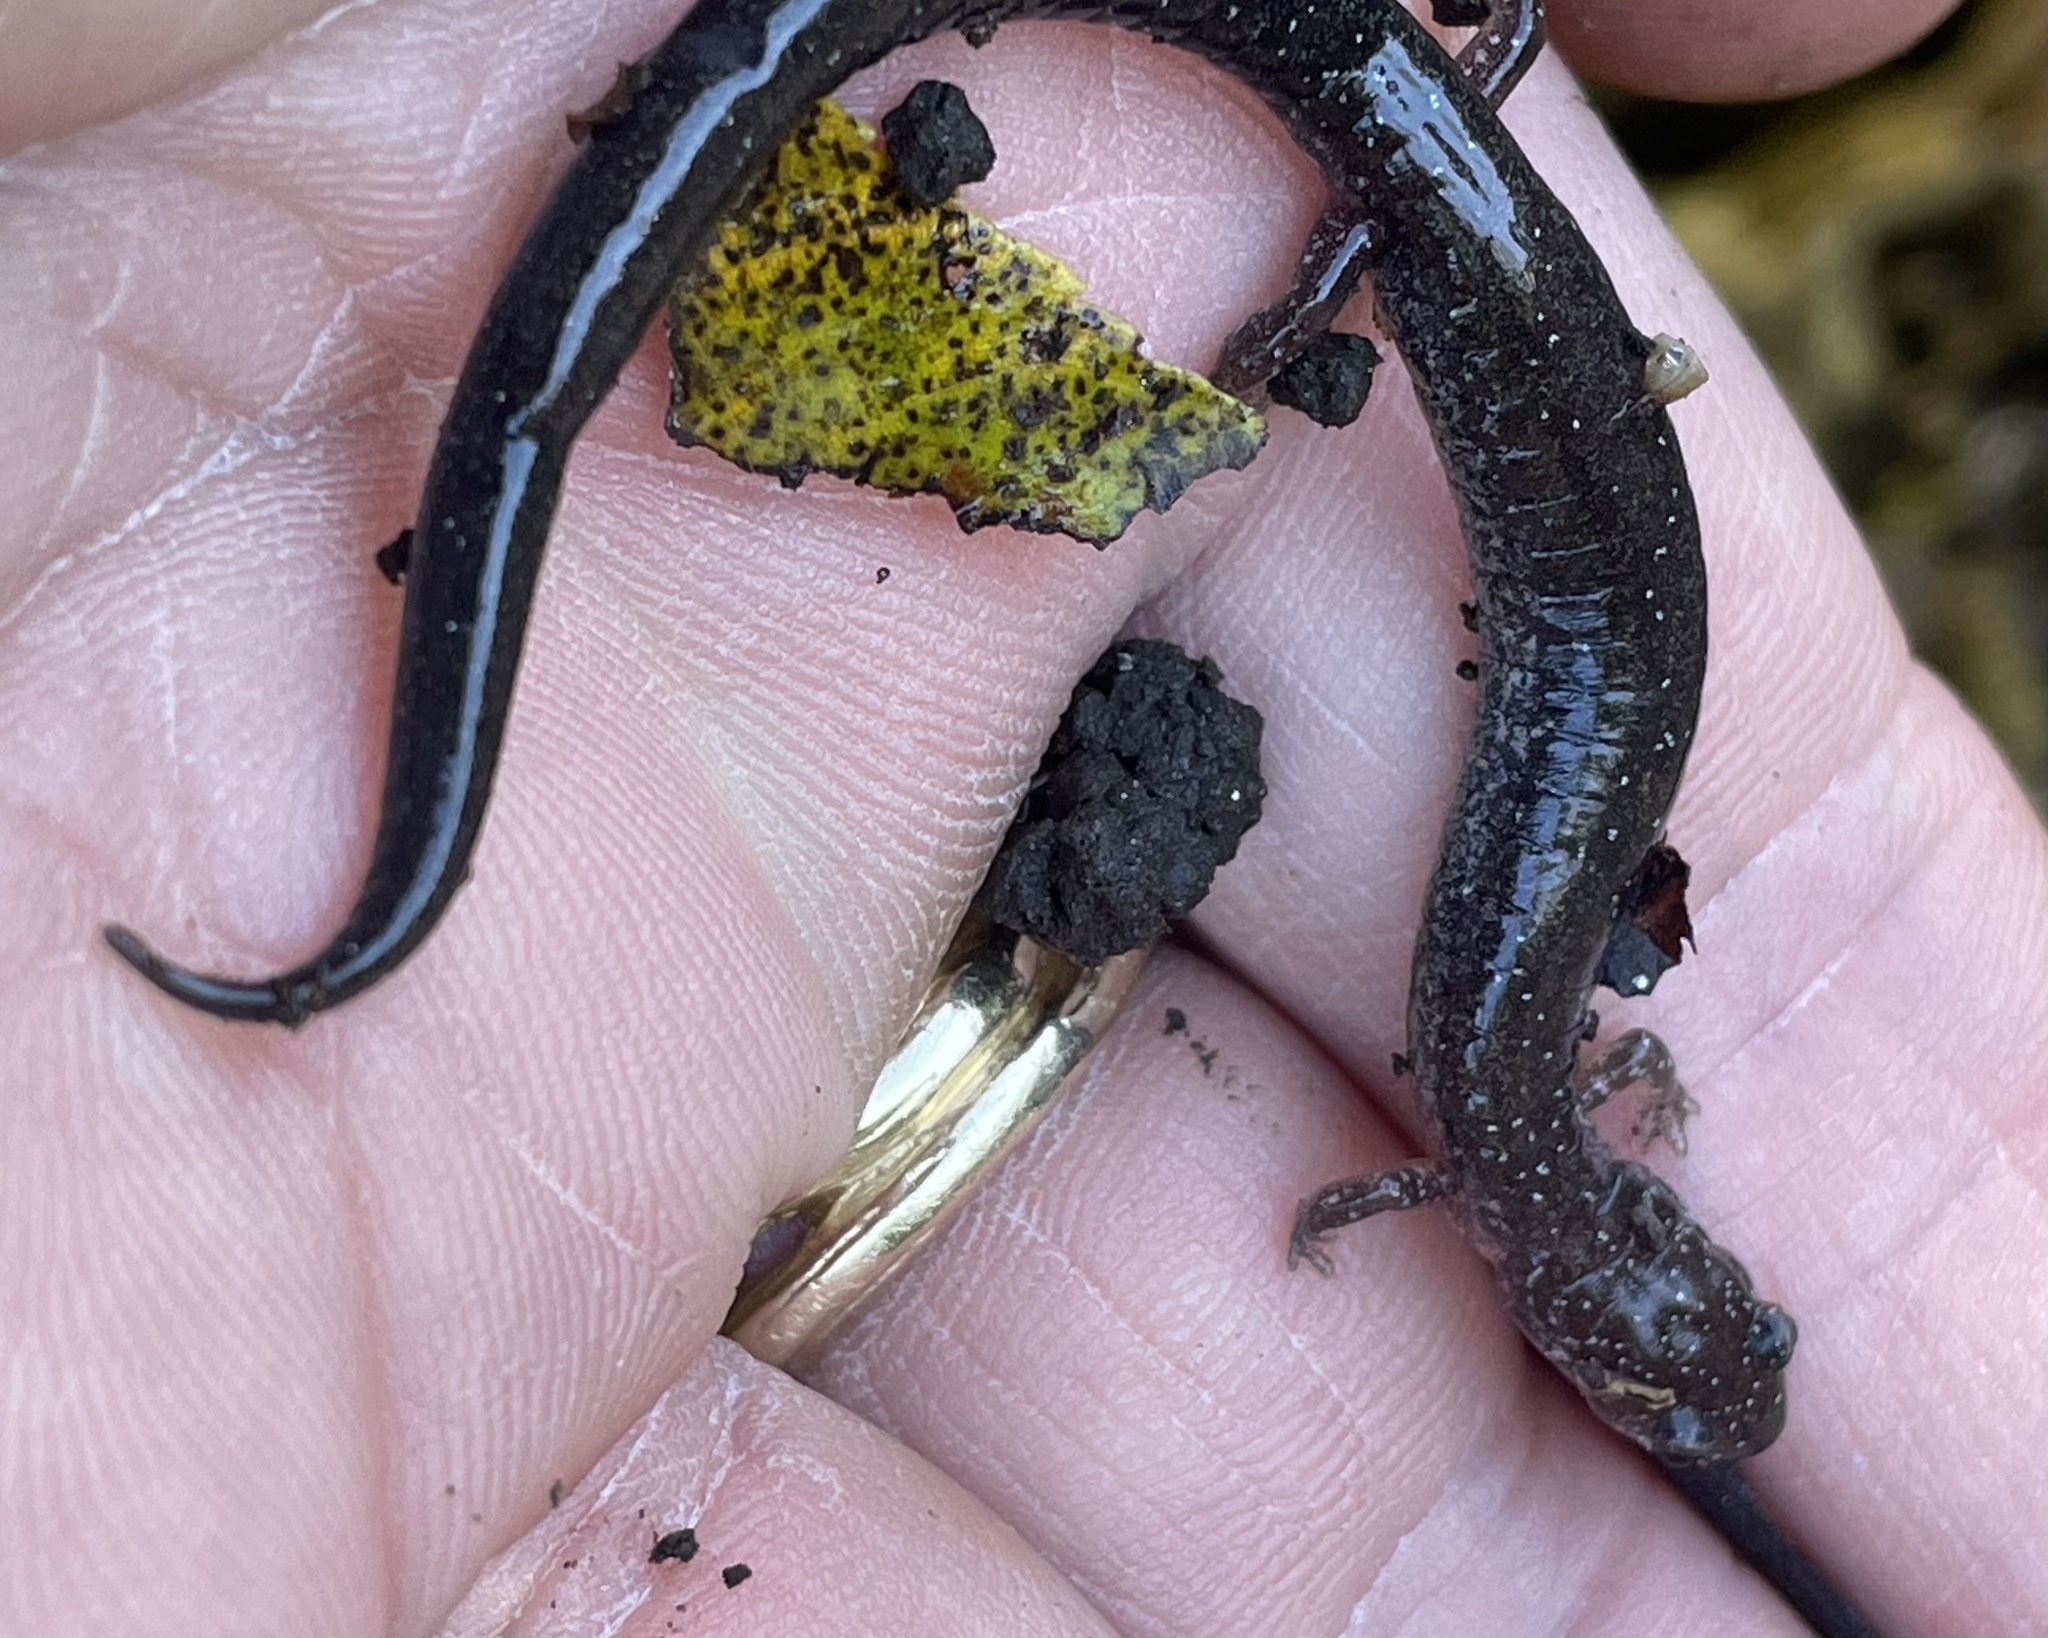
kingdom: Animalia
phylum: Chordata
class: Amphibia
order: Caudata
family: Plethodontidae
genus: Plethodon
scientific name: Plethodon cinereus
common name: Redback salamander
